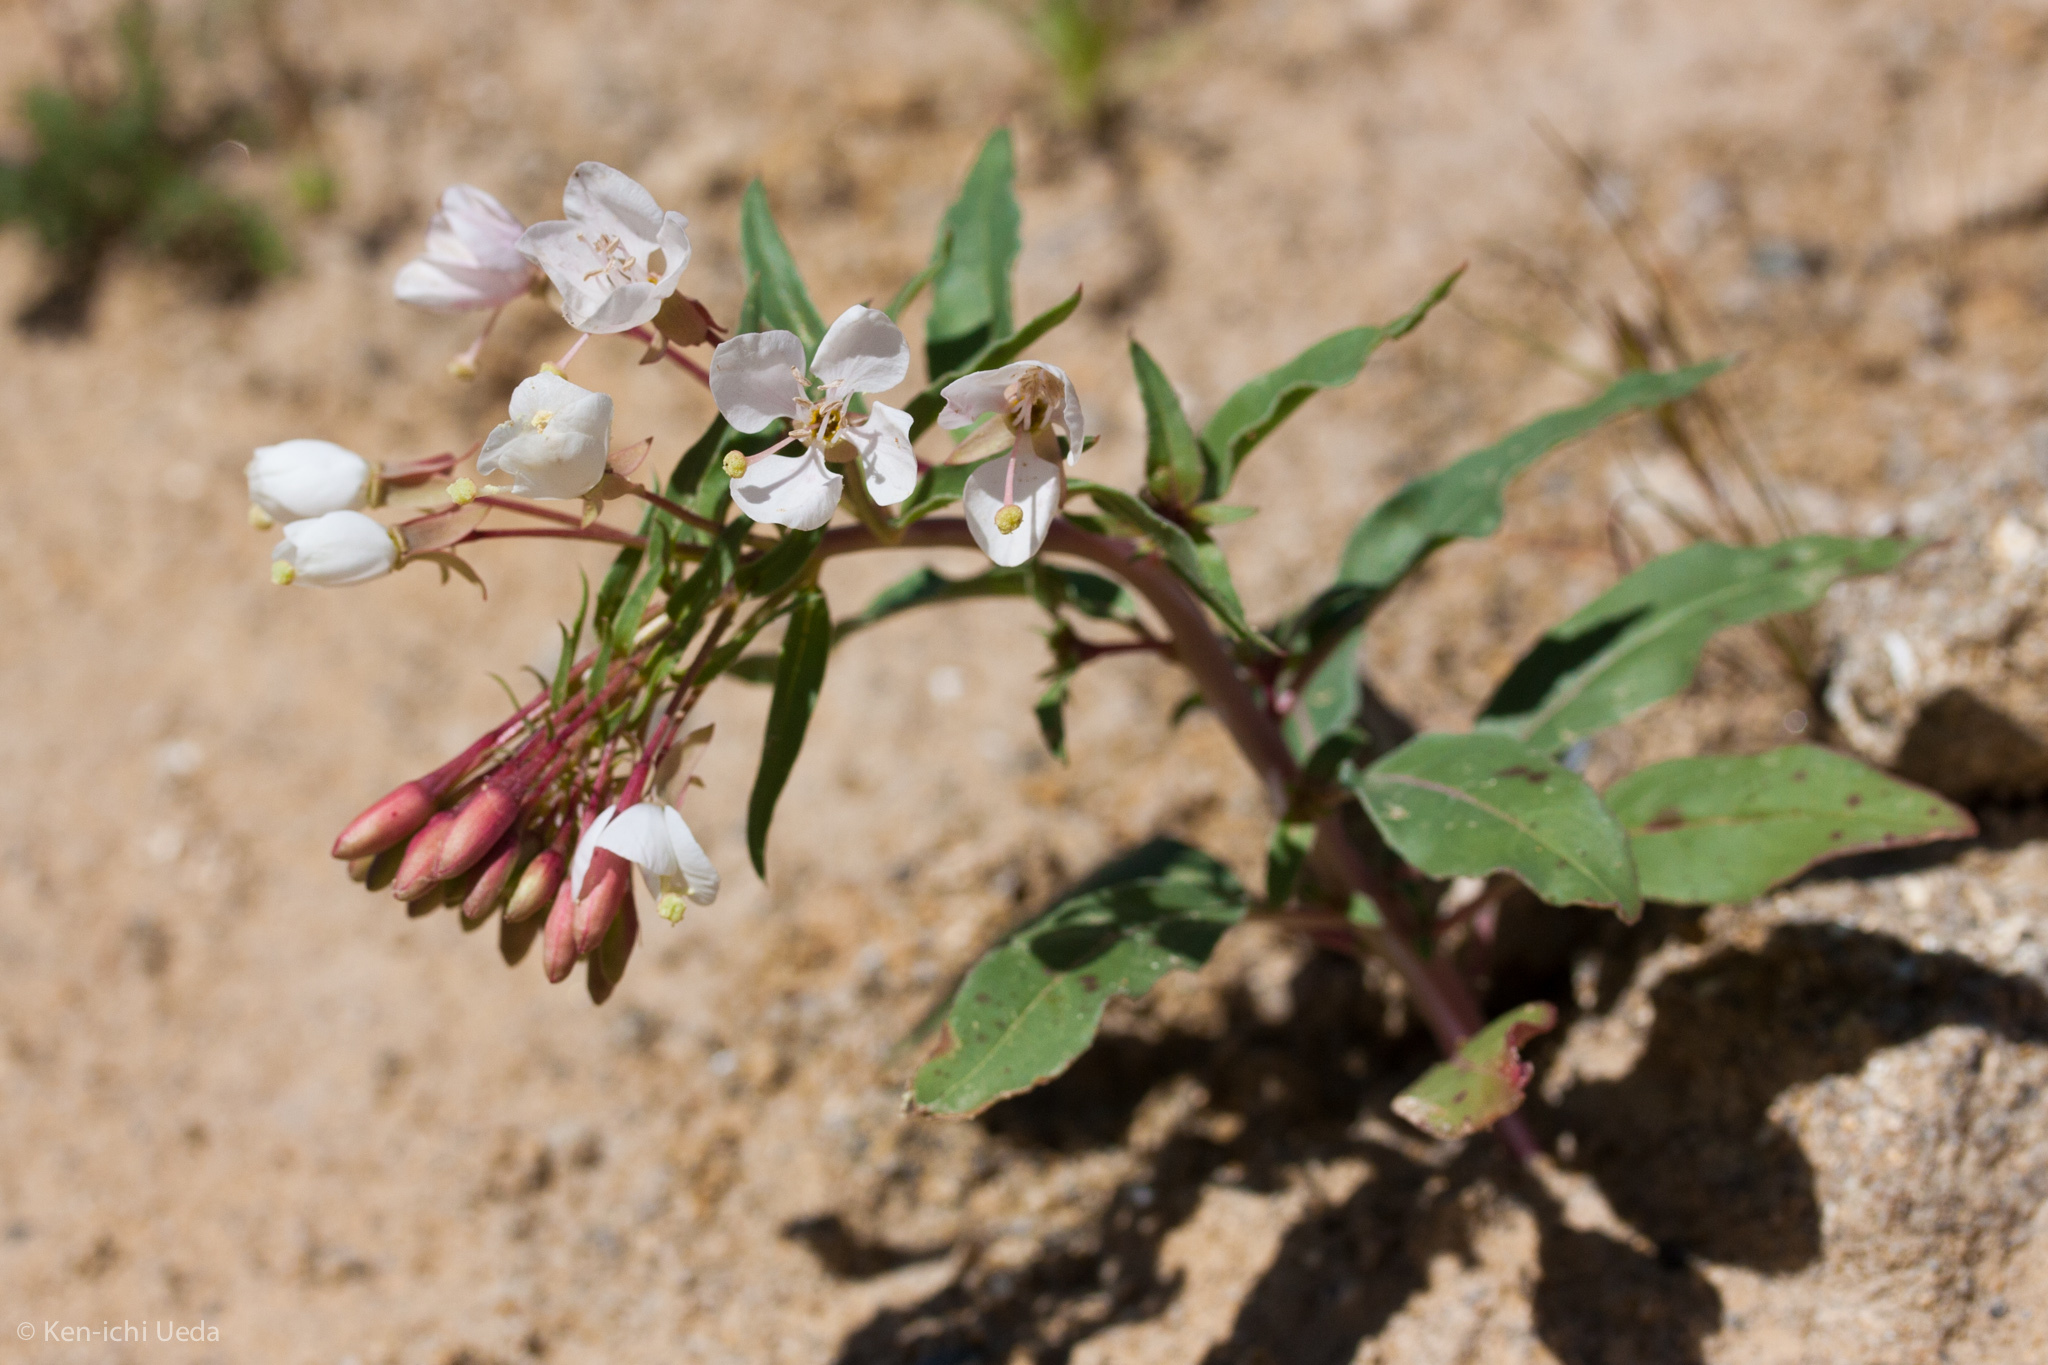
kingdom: Plantae
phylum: Tracheophyta
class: Magnoliopsida
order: Myrtales
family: Onagraceae
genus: Eremothera
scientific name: Eremothera boothii
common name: Booth's evening primrose
